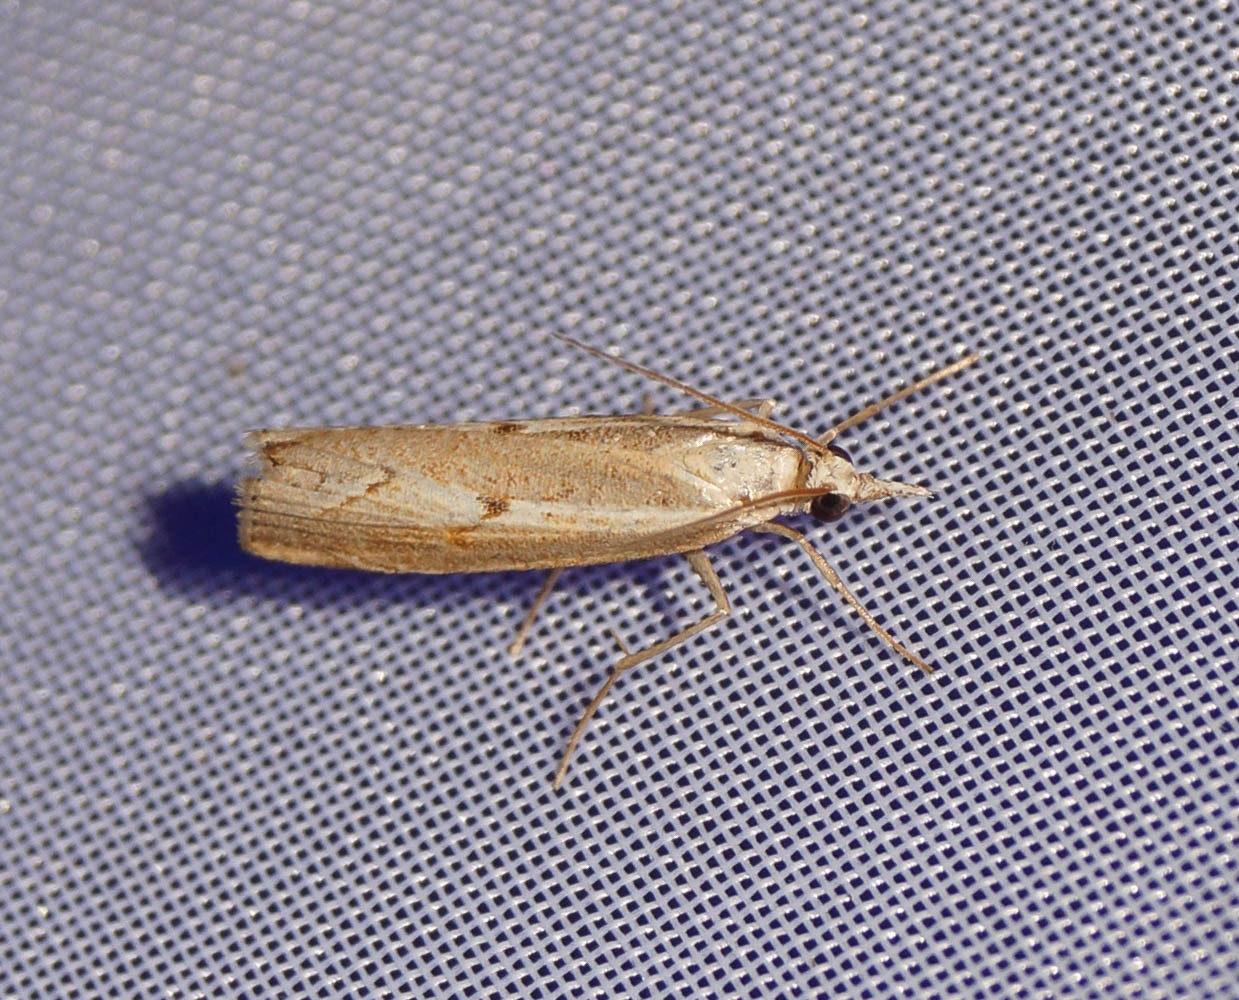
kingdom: Animalia
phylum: Arthropoda
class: Insecta
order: Lepidoptera
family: Crambidae
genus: Agriphila
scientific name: Agriphila geniculea
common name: Elbow-stripe grass-veneer
